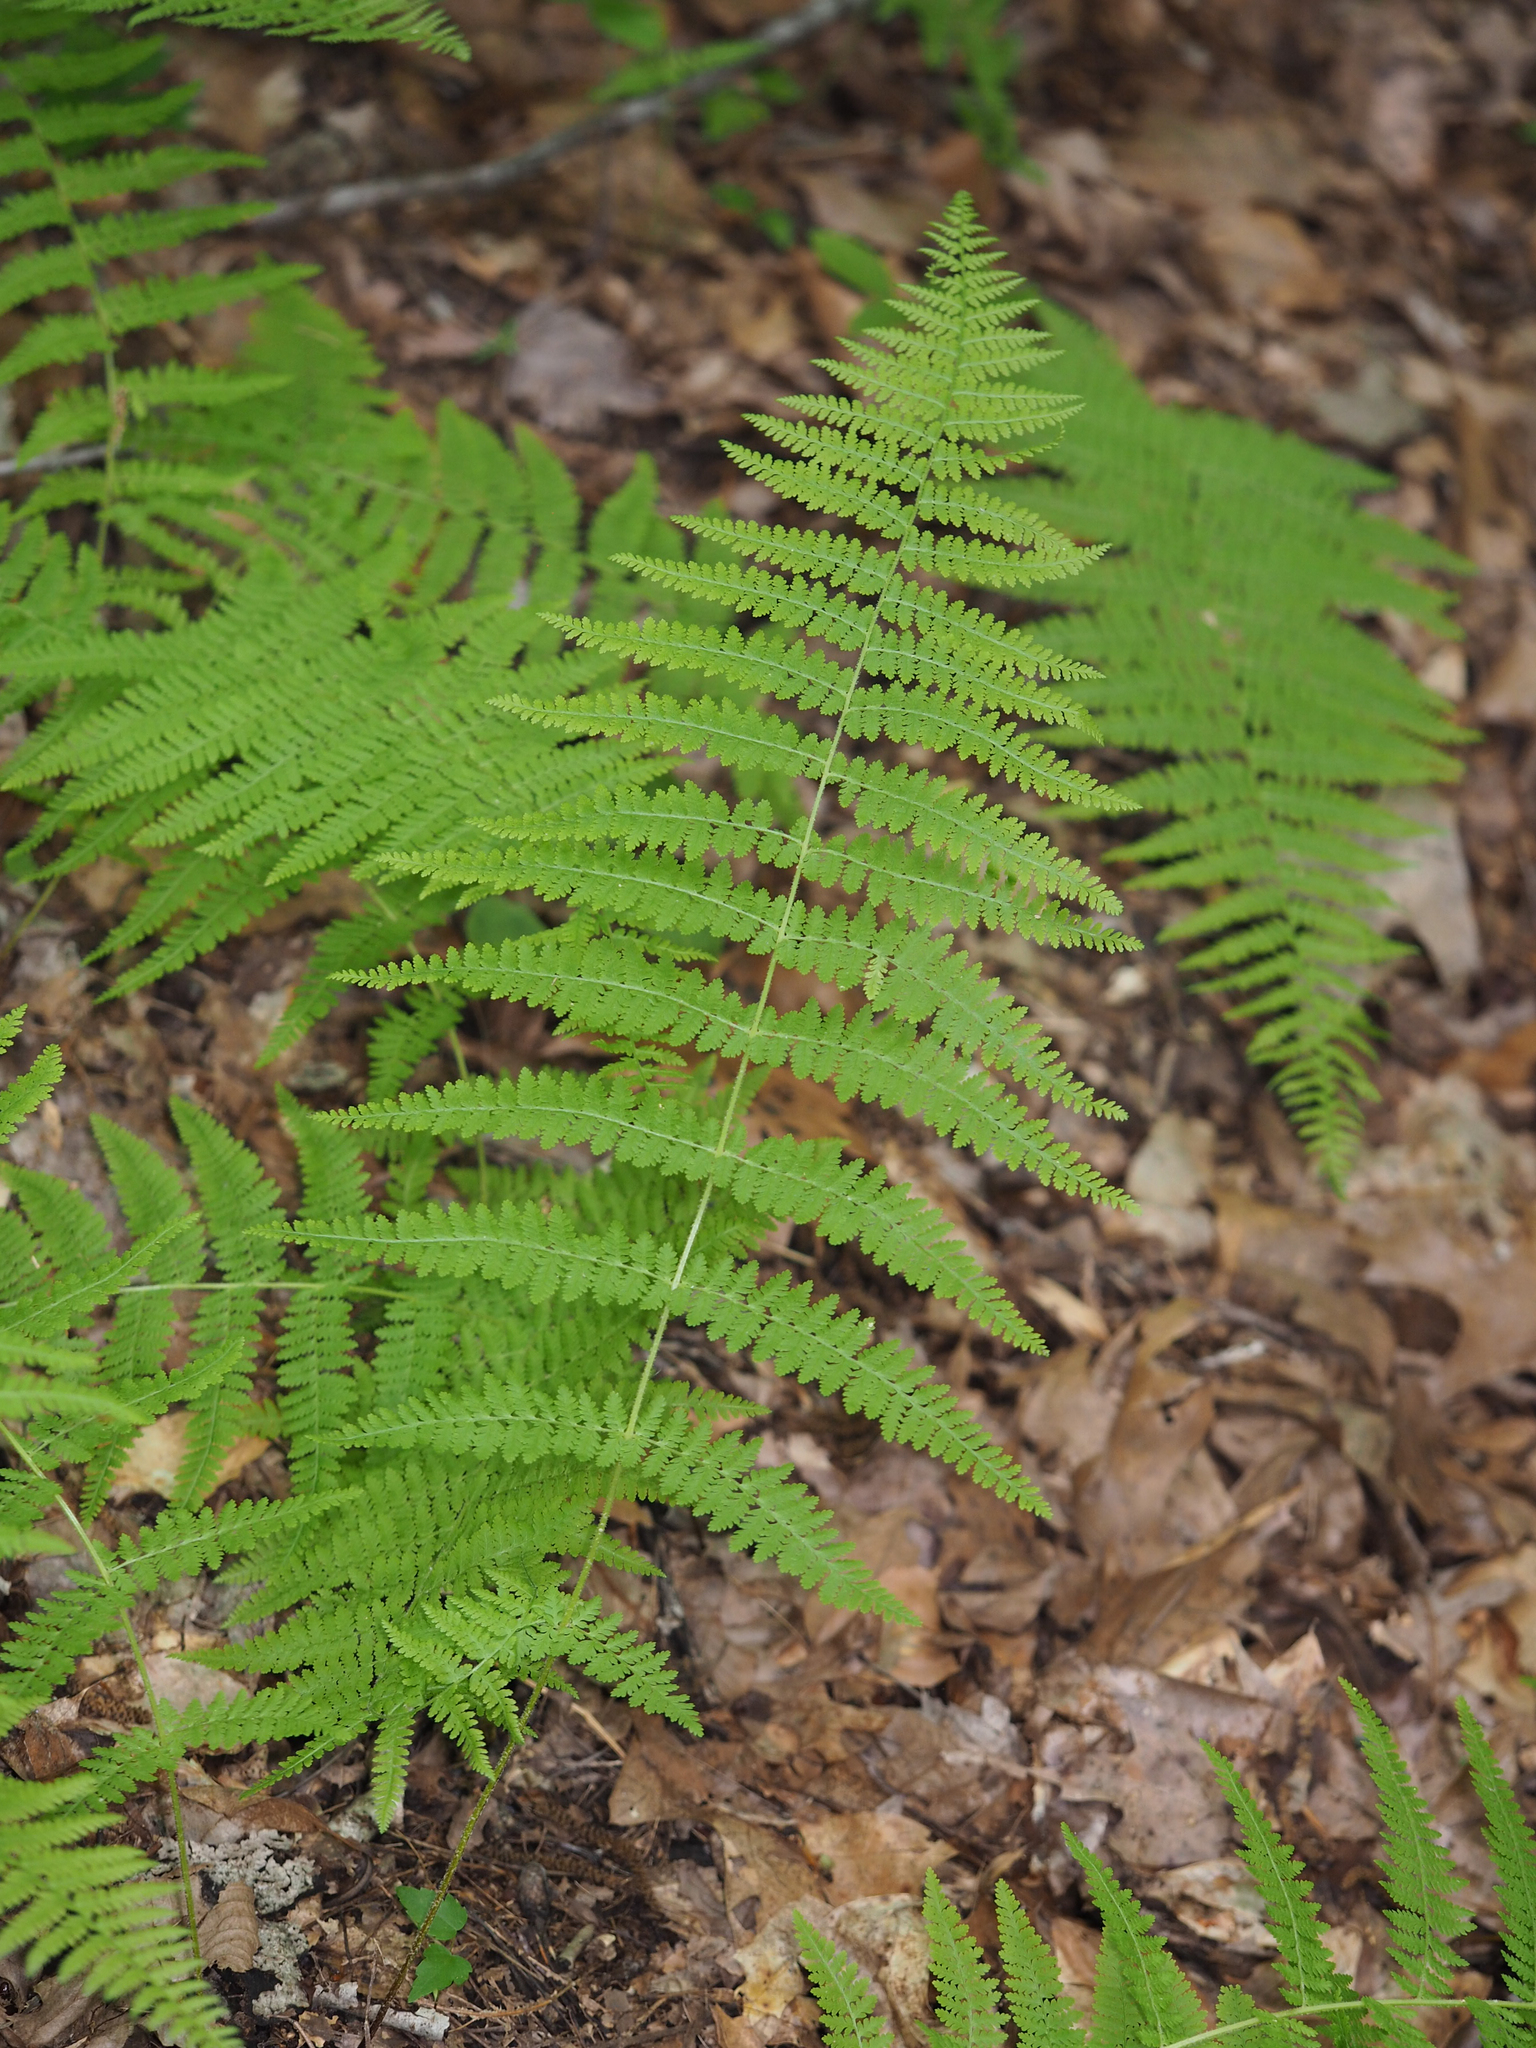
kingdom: Plantae
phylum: Tracheophyta
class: Polypodiopsida
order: Polypodiales
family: Dennstaedtiaceae
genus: Sitobolium
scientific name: Sitobolium punctilobum
